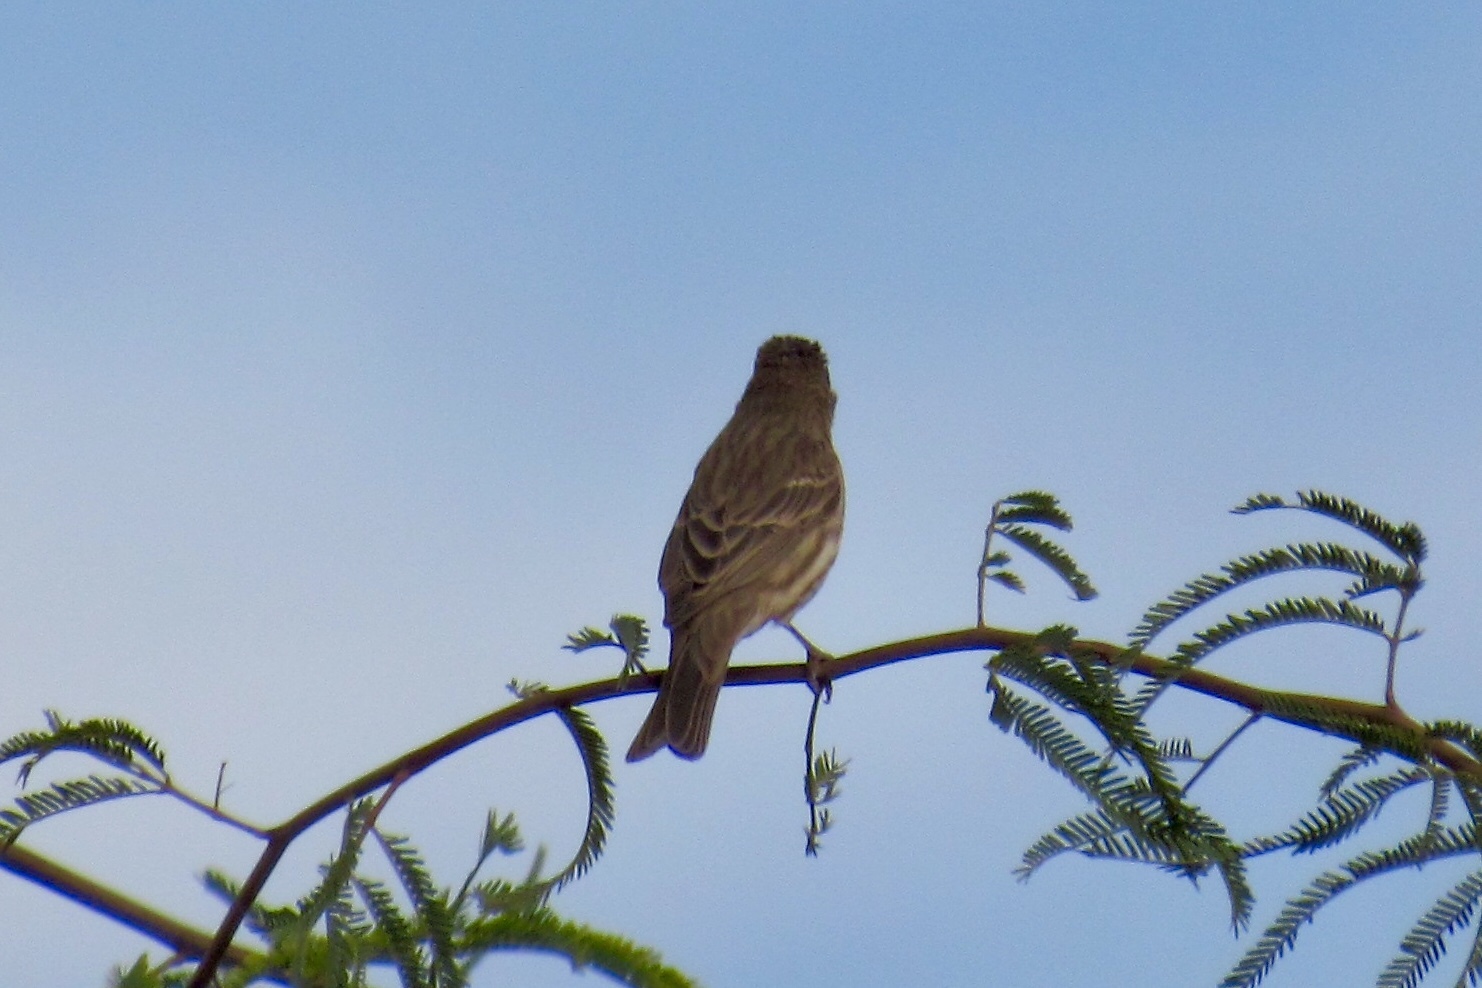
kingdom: Animalia
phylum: Chordata
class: Aves
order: Passeriformes
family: Fringillidae
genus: Haemorhous
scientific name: Haemorhous mexicanus
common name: House finch
